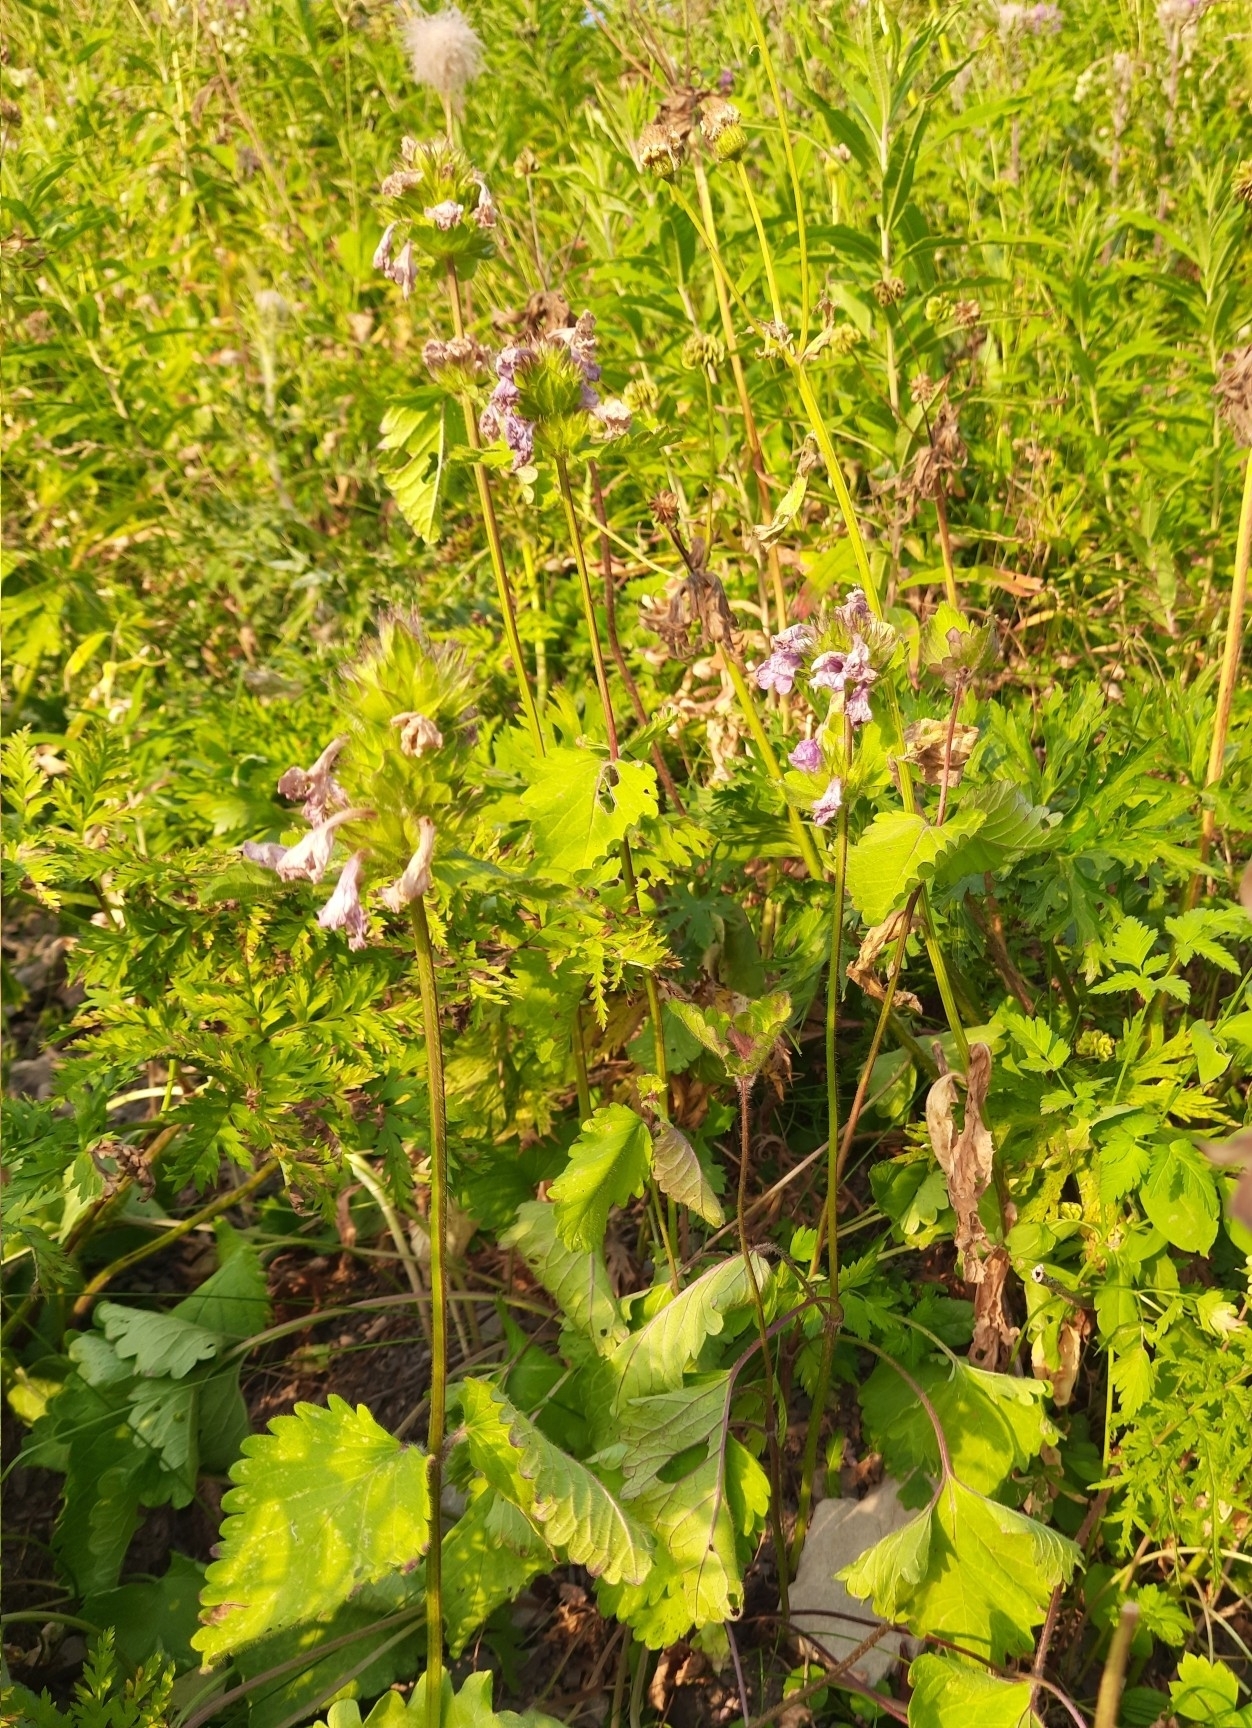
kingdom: Plantae
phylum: Tracheophyta
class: Magnoliopsida
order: Lamiales
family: Lamiaceae
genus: Betonica
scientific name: Betonica macrantha
